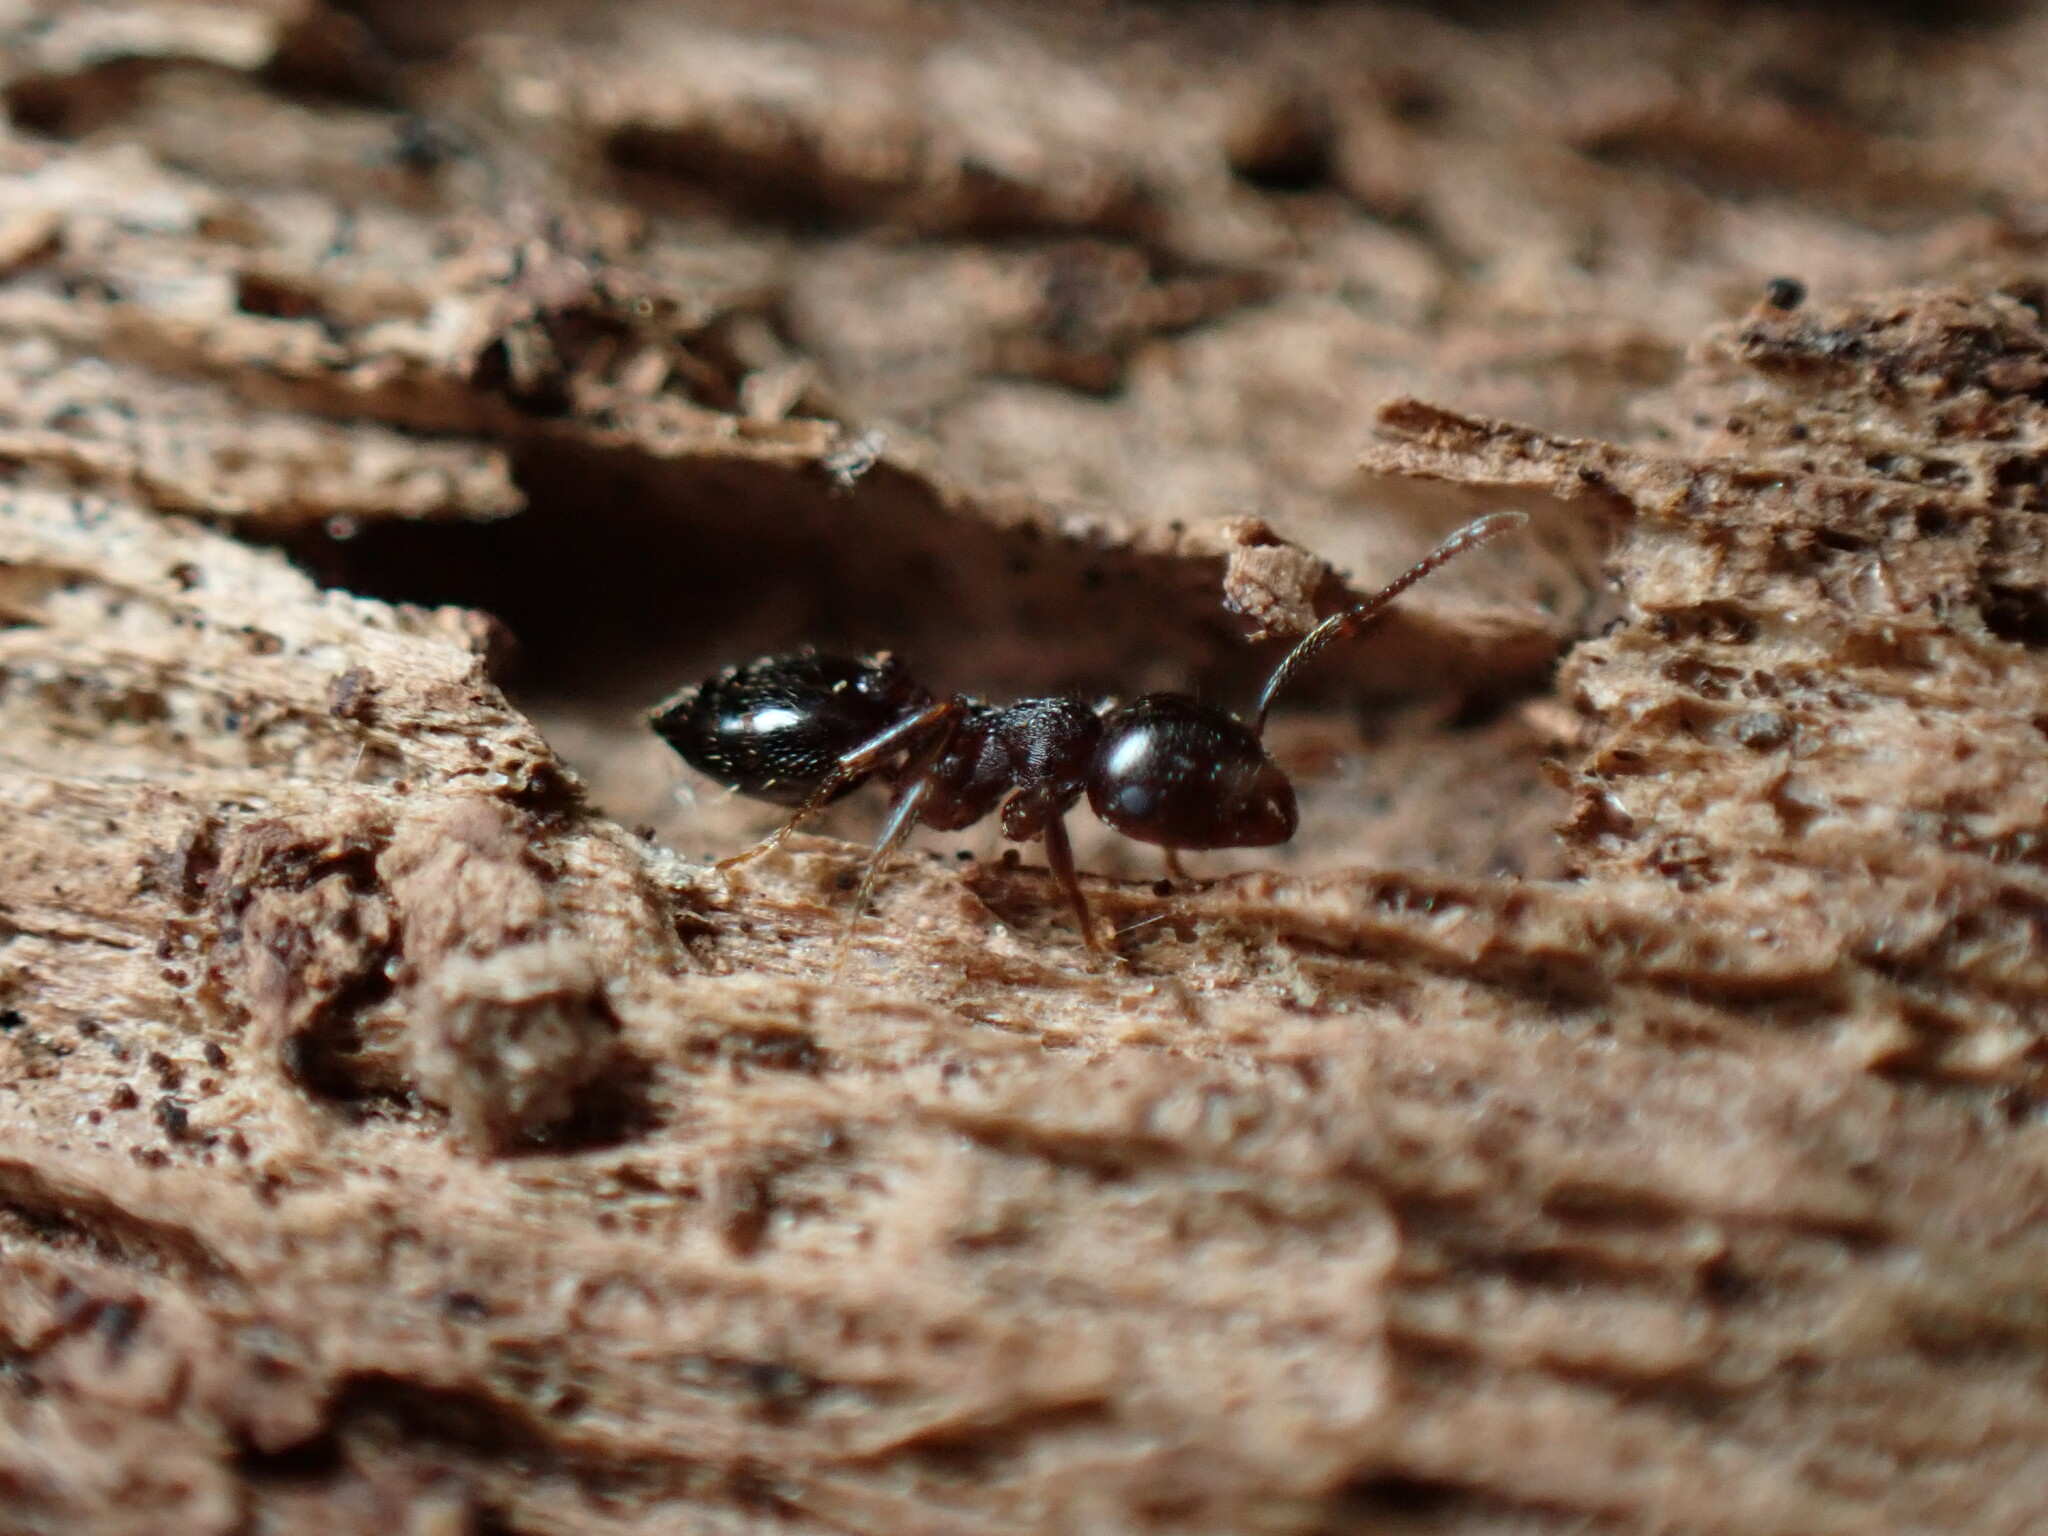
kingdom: Animalia
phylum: Arthropoda
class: Insecta
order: Hymenoptera
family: Formicidae
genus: Crematogaster
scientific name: Crematogaster lineolata
